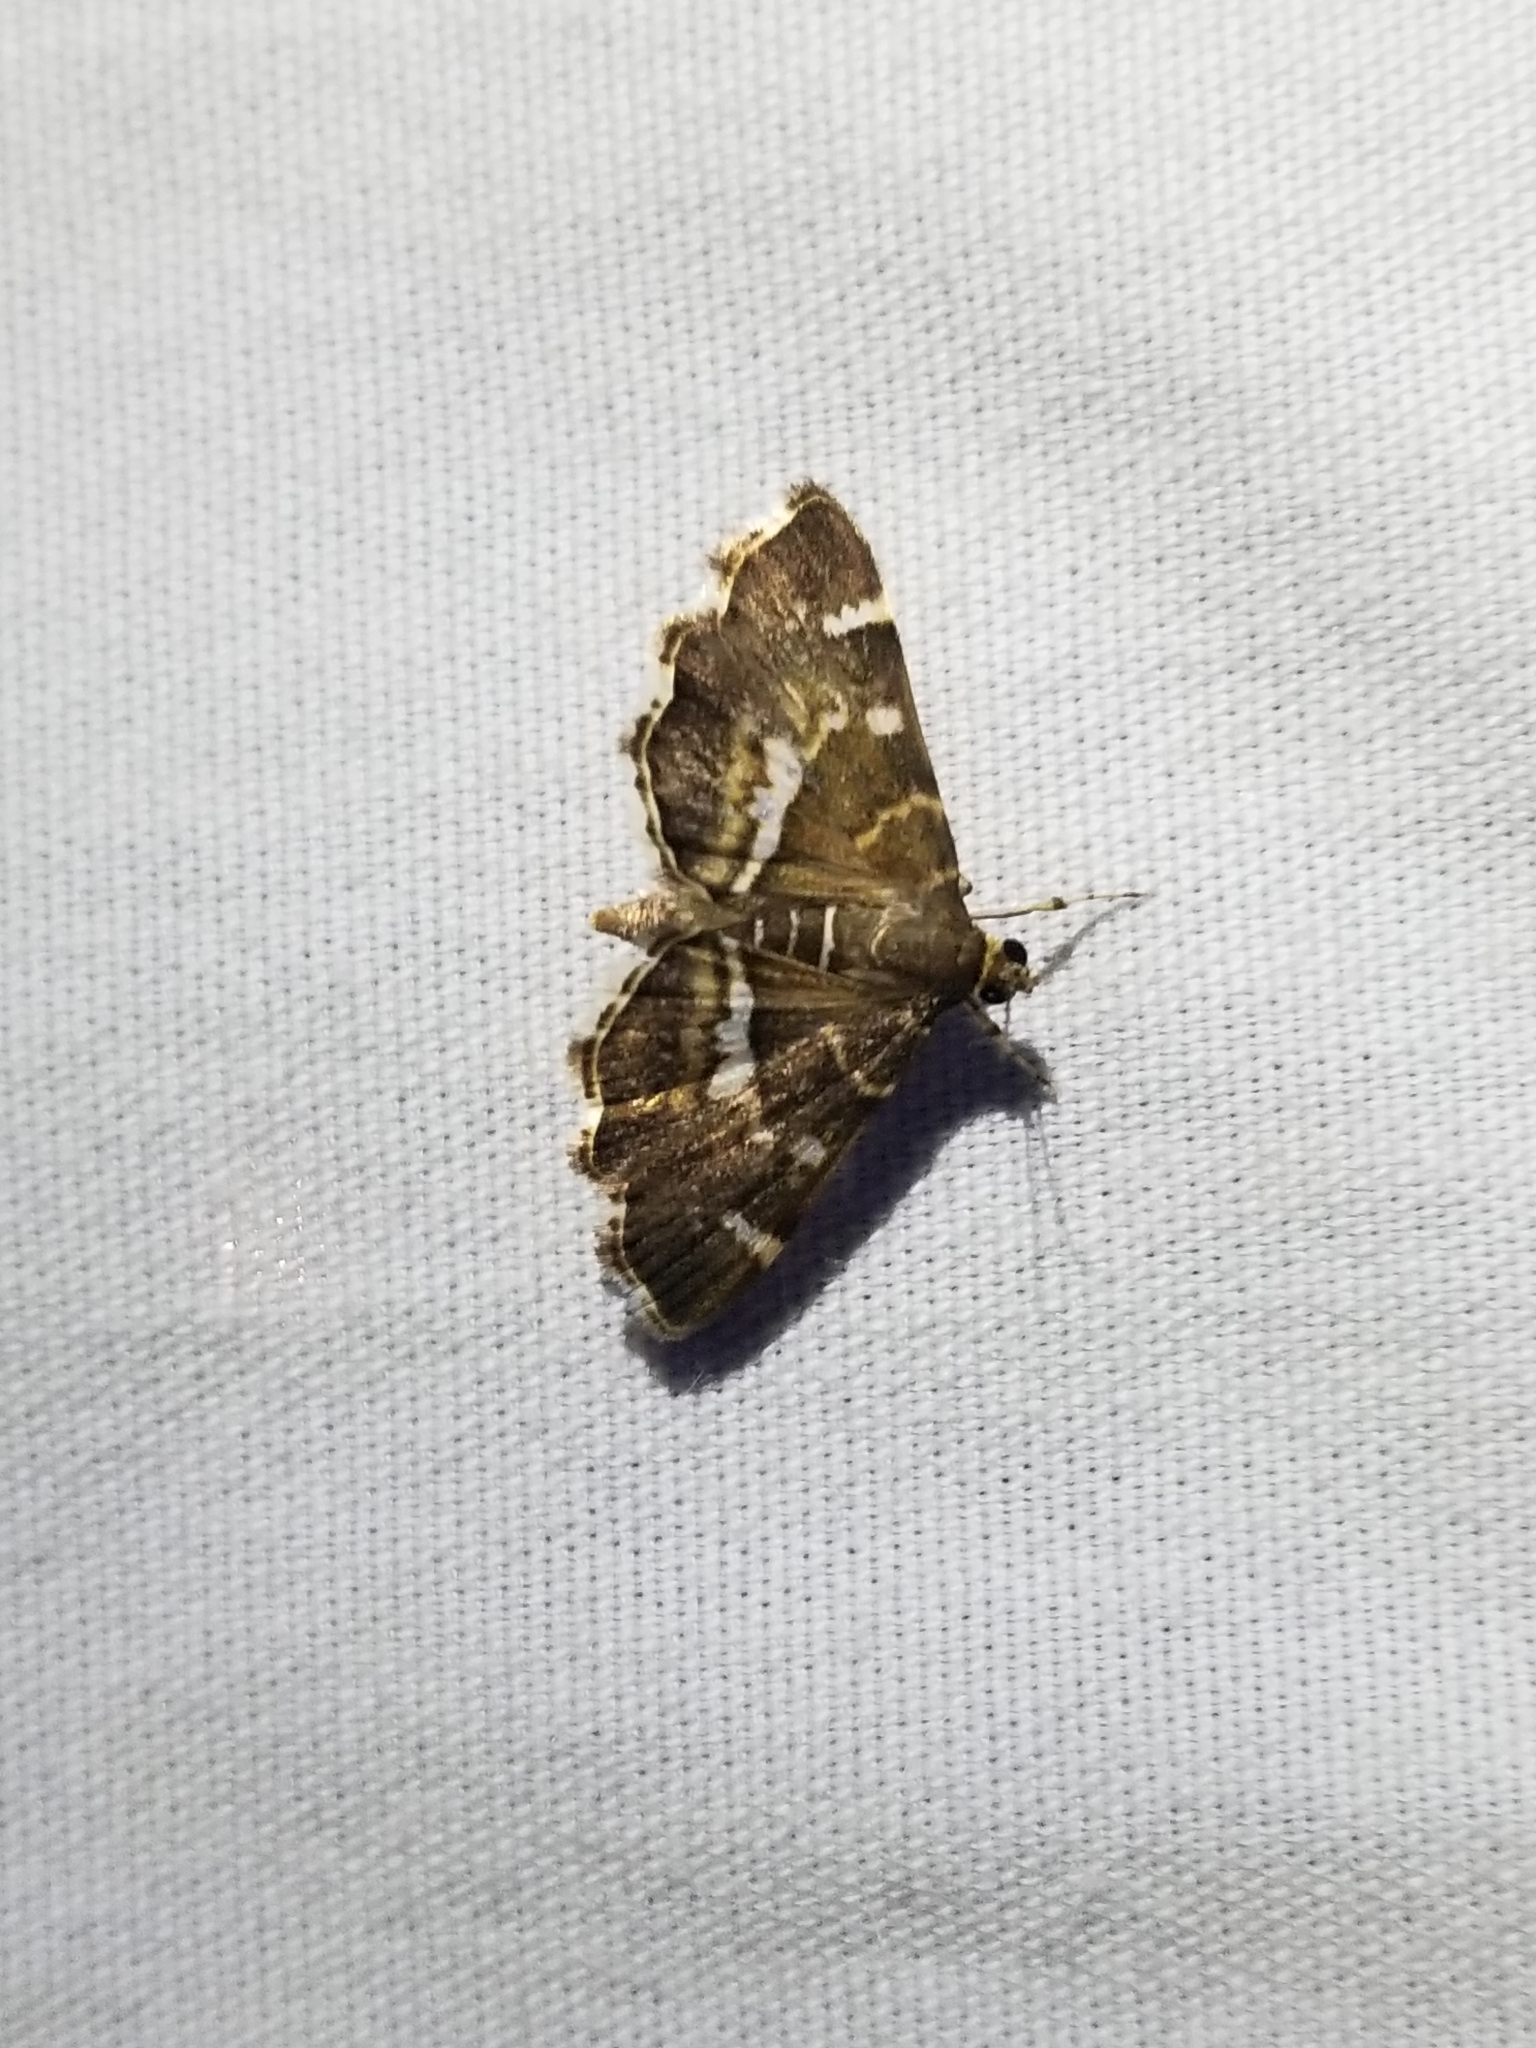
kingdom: Animalia
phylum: Arthropoda
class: Insecta
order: Lepidoptera
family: Crambidae
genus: Hymenia
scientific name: Hymenia perspectalis
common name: Spotted beet webworm
